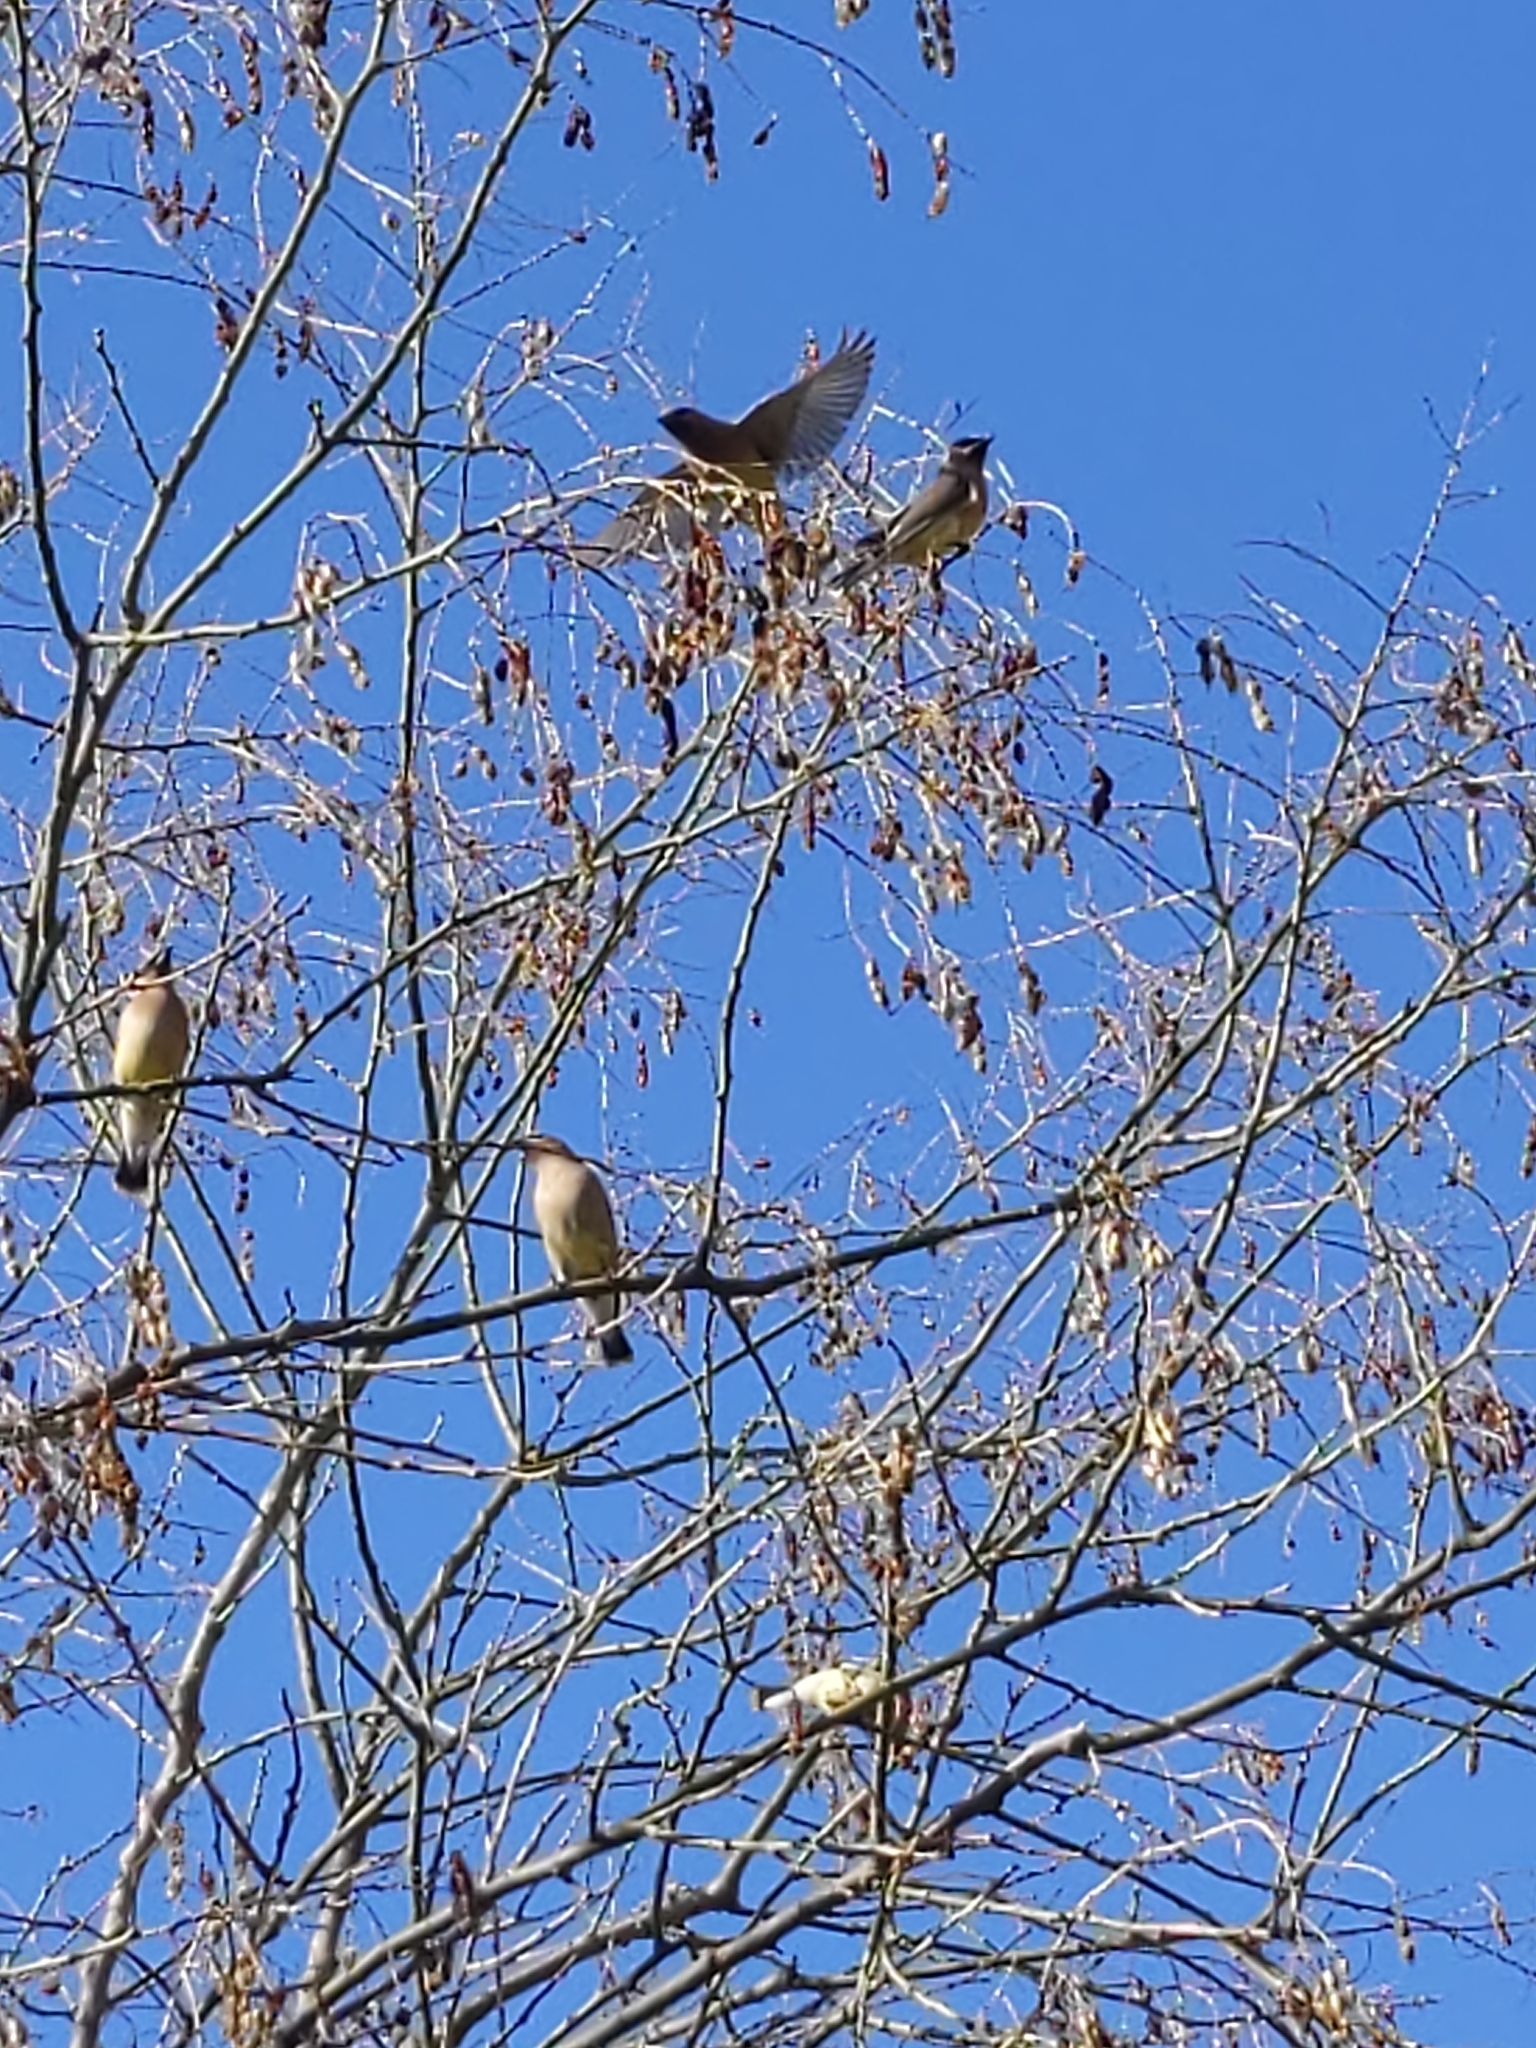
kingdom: Animalia
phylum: Chordata
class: Aves
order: Passeriformes
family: Bombycillidae
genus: Bombycilla
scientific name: Bombycilla cedrorum
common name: Cedar waxwing
